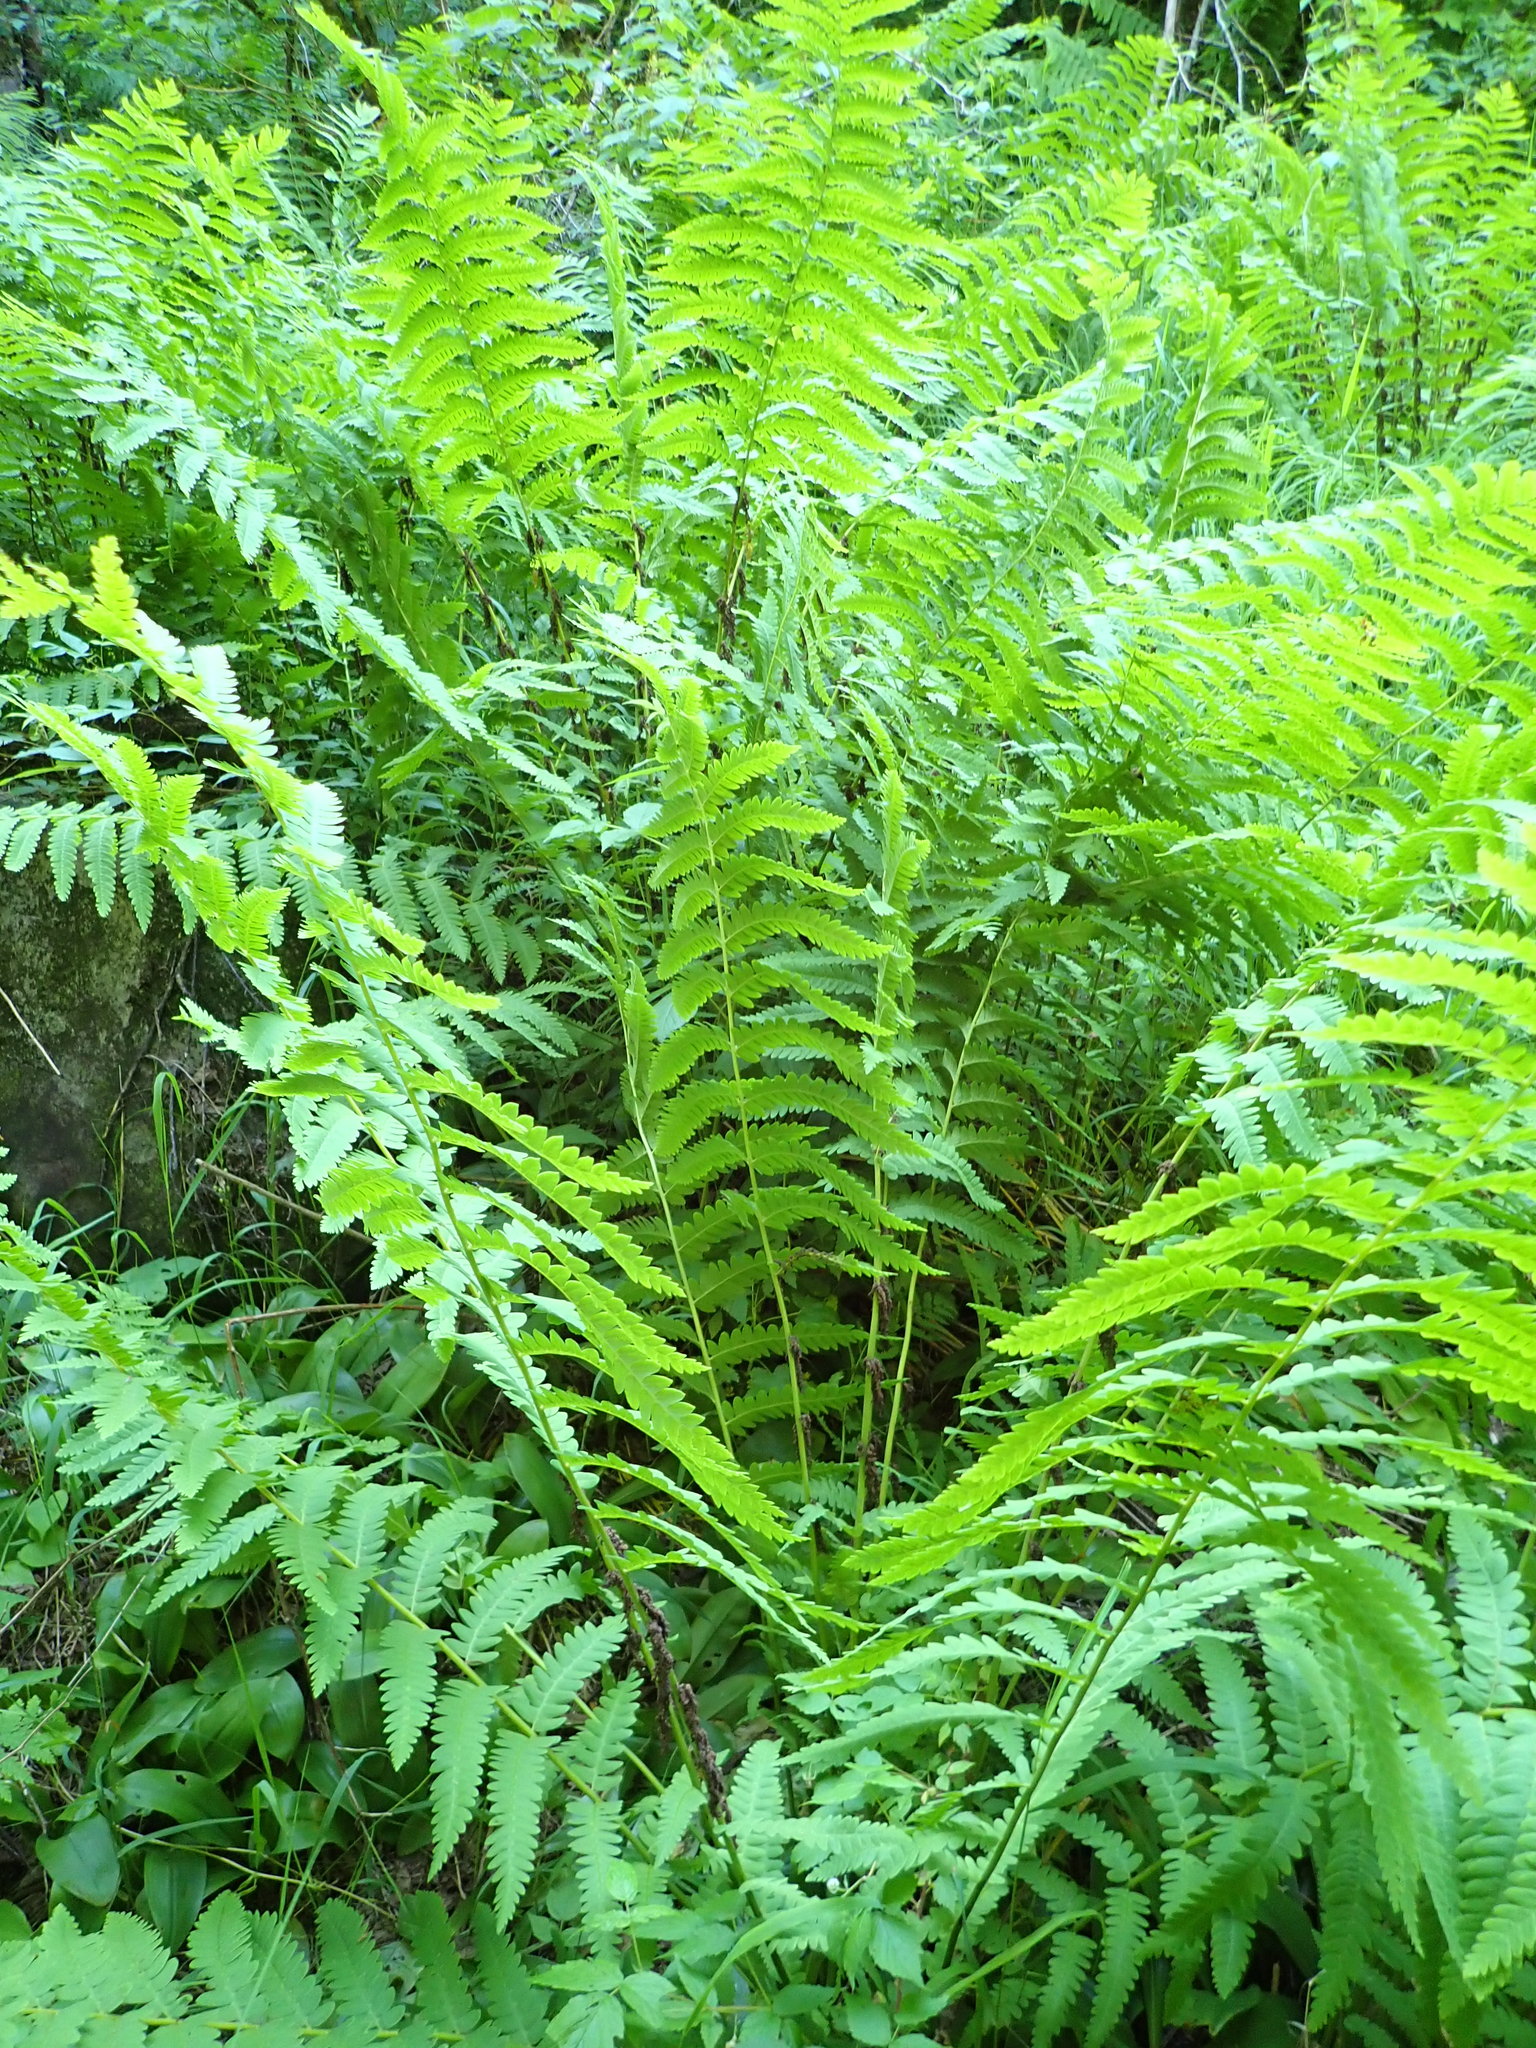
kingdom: Plantae
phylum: Tracheophyta
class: Polypodiopsida
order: Osmundales
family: Osmundaceae
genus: Claytosmunda
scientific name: Claytosmunda claytoniana
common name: Clayton's fern
